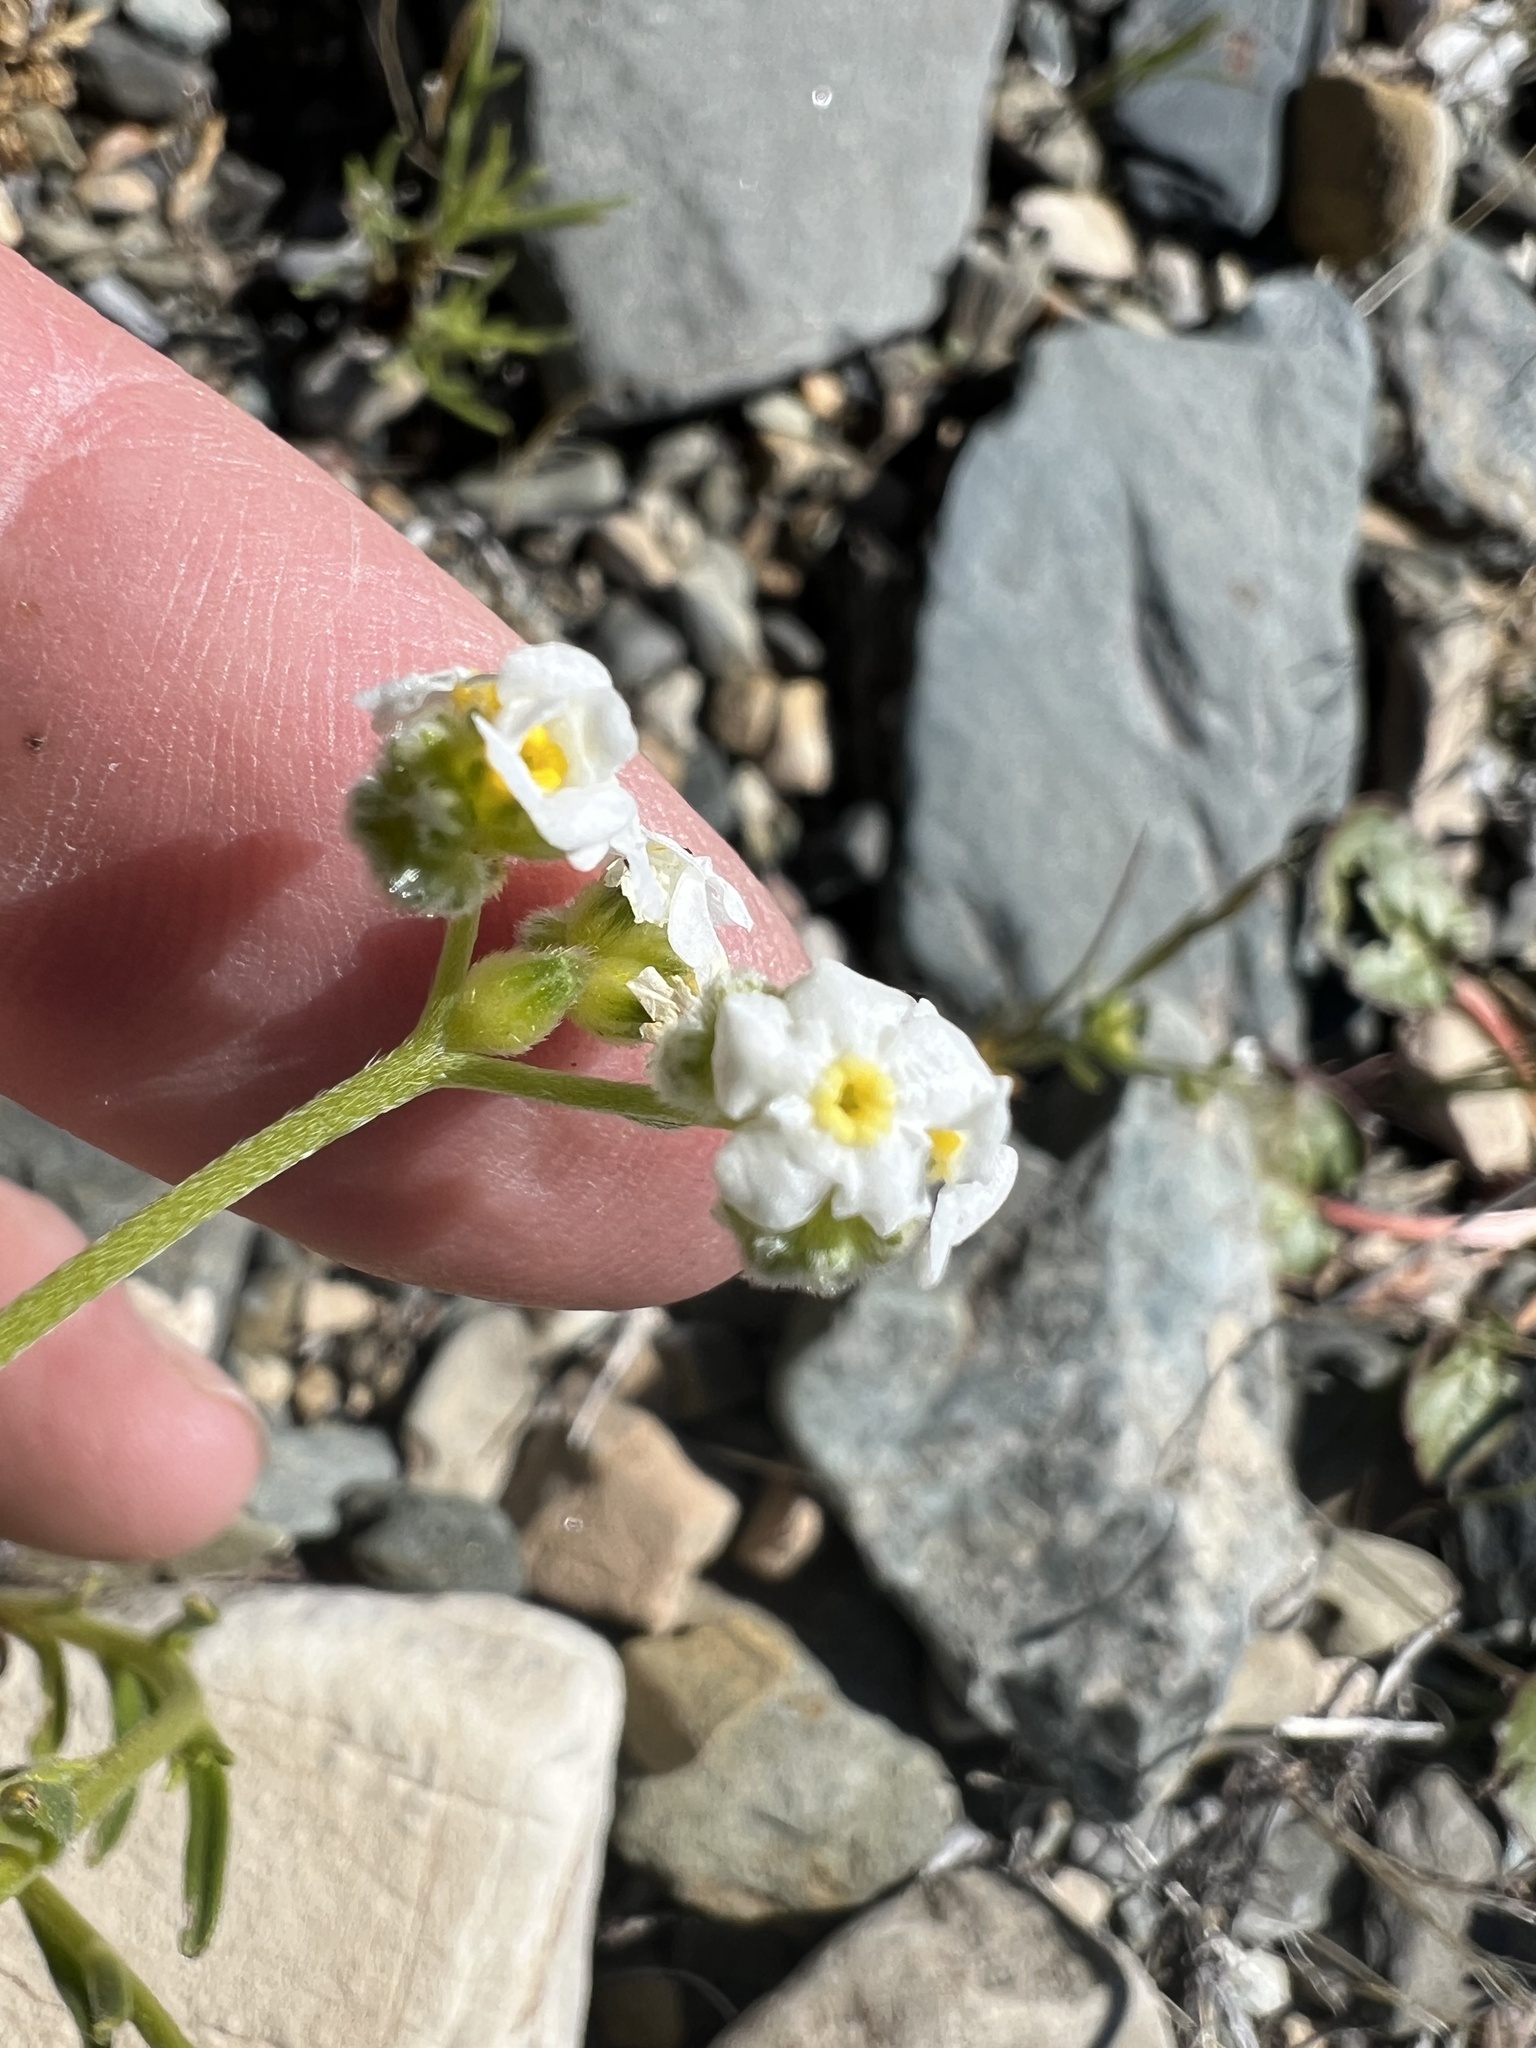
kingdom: Plantae
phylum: Tracheophyta
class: Magnoliopsida
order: Boraginales
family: Boraginaceae
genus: Cryptantha
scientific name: Cryptantha utahensis
